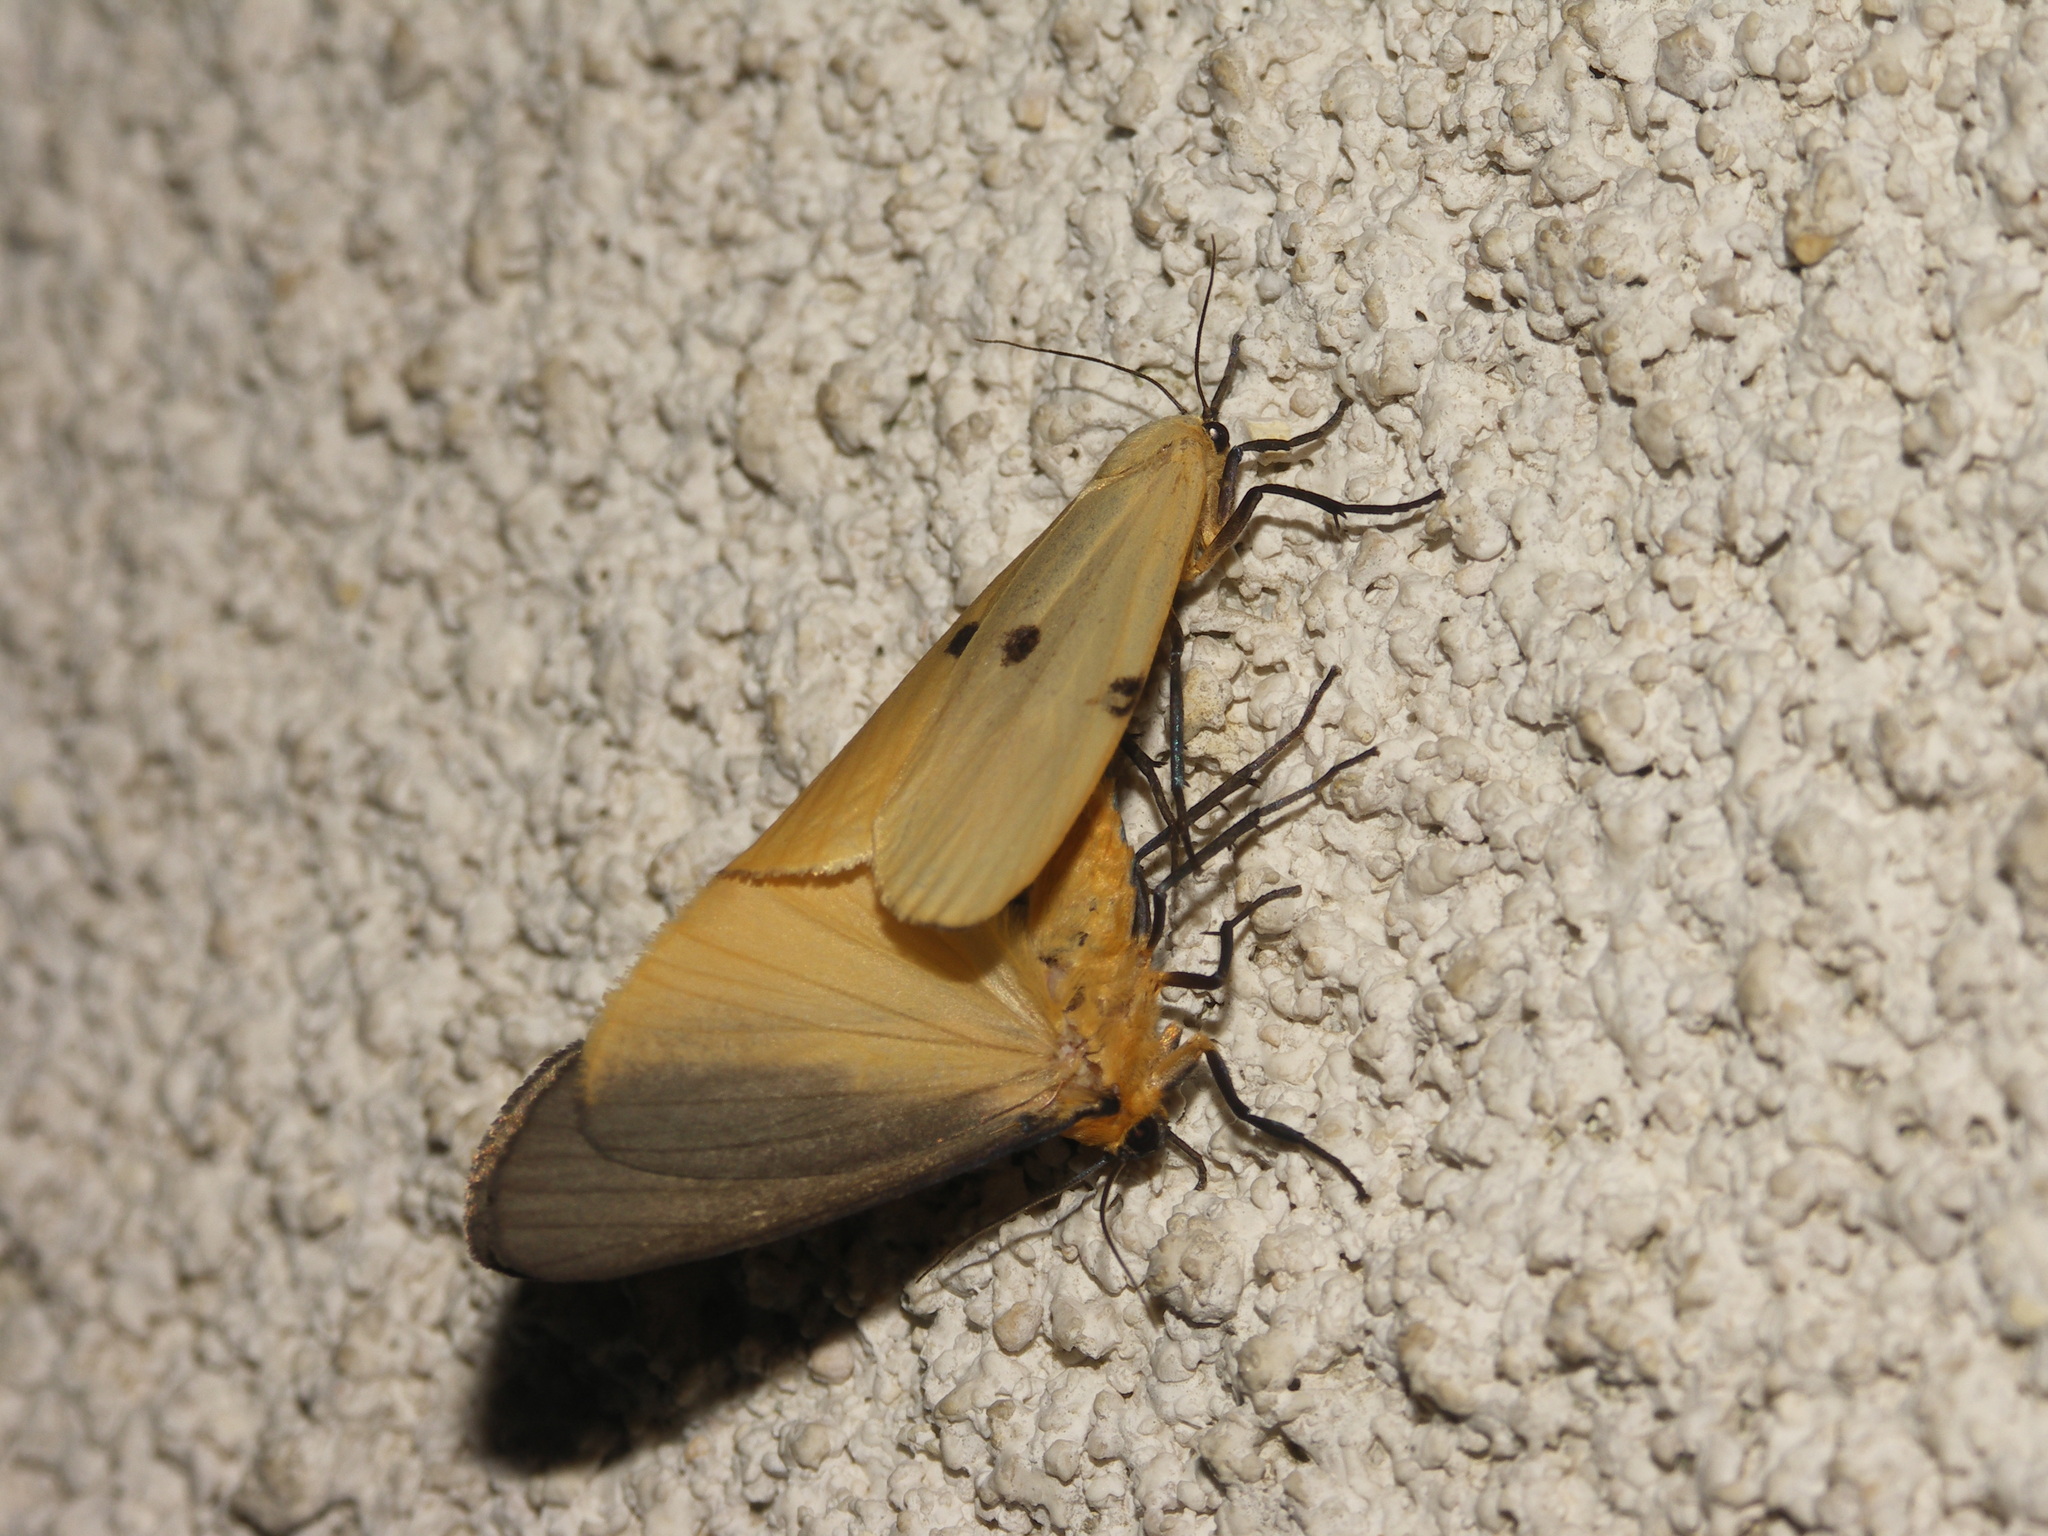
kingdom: Animalia
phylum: Arthropoda
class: Insecta
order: Lepidoptera
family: Erebidae
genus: Lithosia
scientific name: Lithosia quadra
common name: Four-spotted footman
